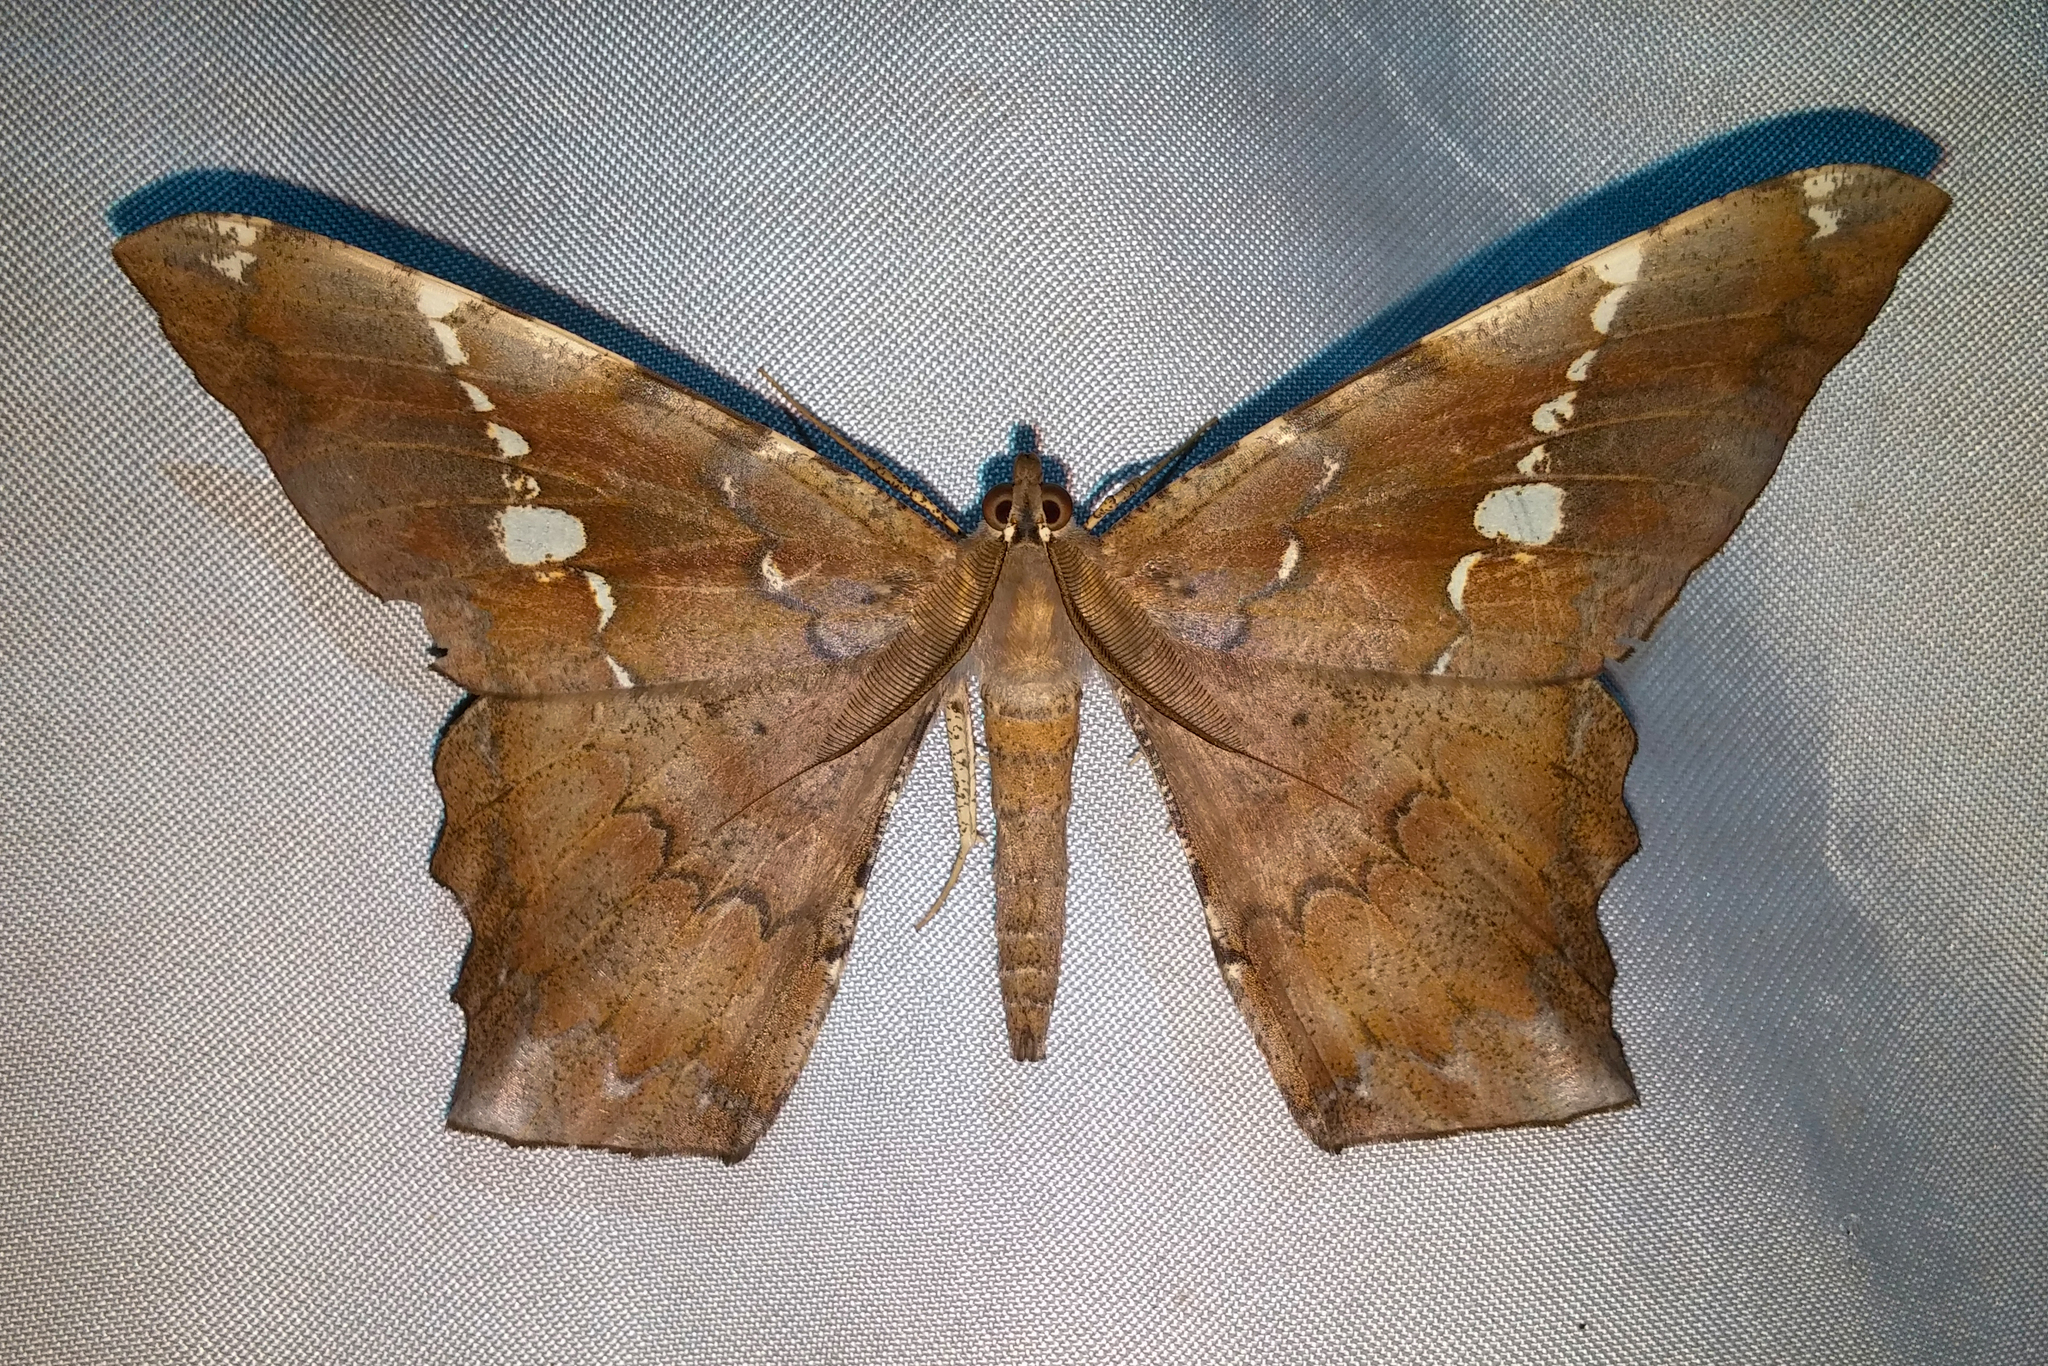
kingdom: Animalia
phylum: Arthropoda
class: Insecta
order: Lepidoptera
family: Geometridae
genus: Amblychia
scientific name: Amblychia angeronaria
